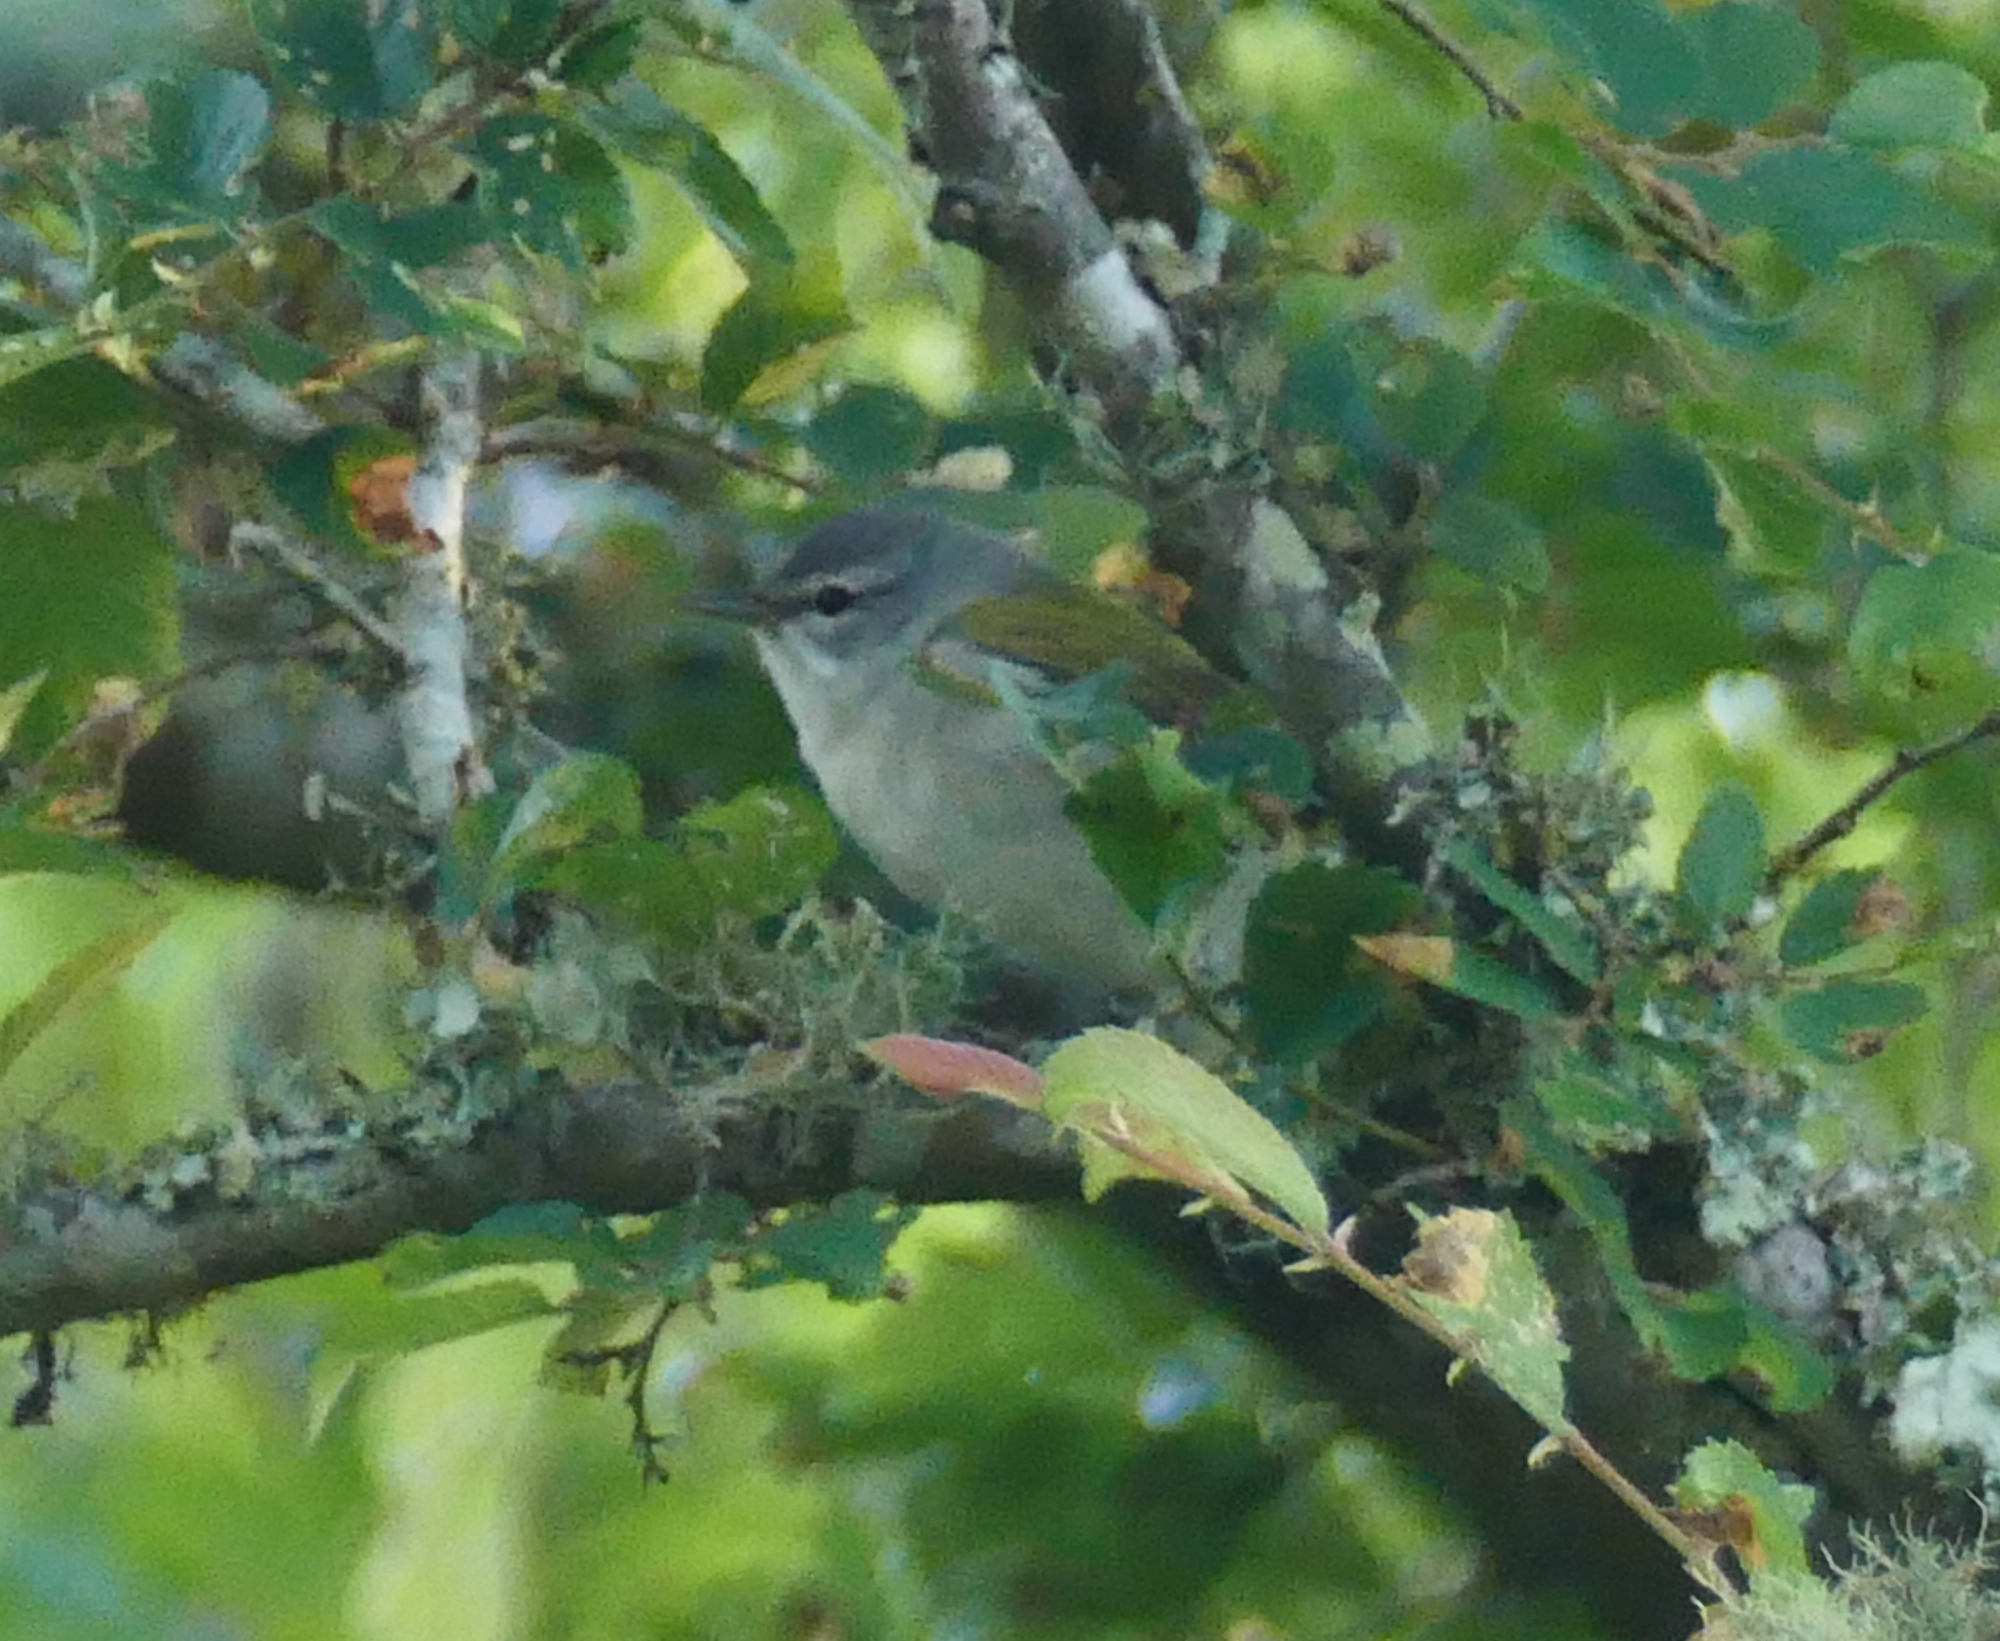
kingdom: Animalia
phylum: Chordata
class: Aves
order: Passeriformes
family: Parulidae
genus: Leiothlypis
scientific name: Leiothlypis peregrina
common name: Tennessee warbler
